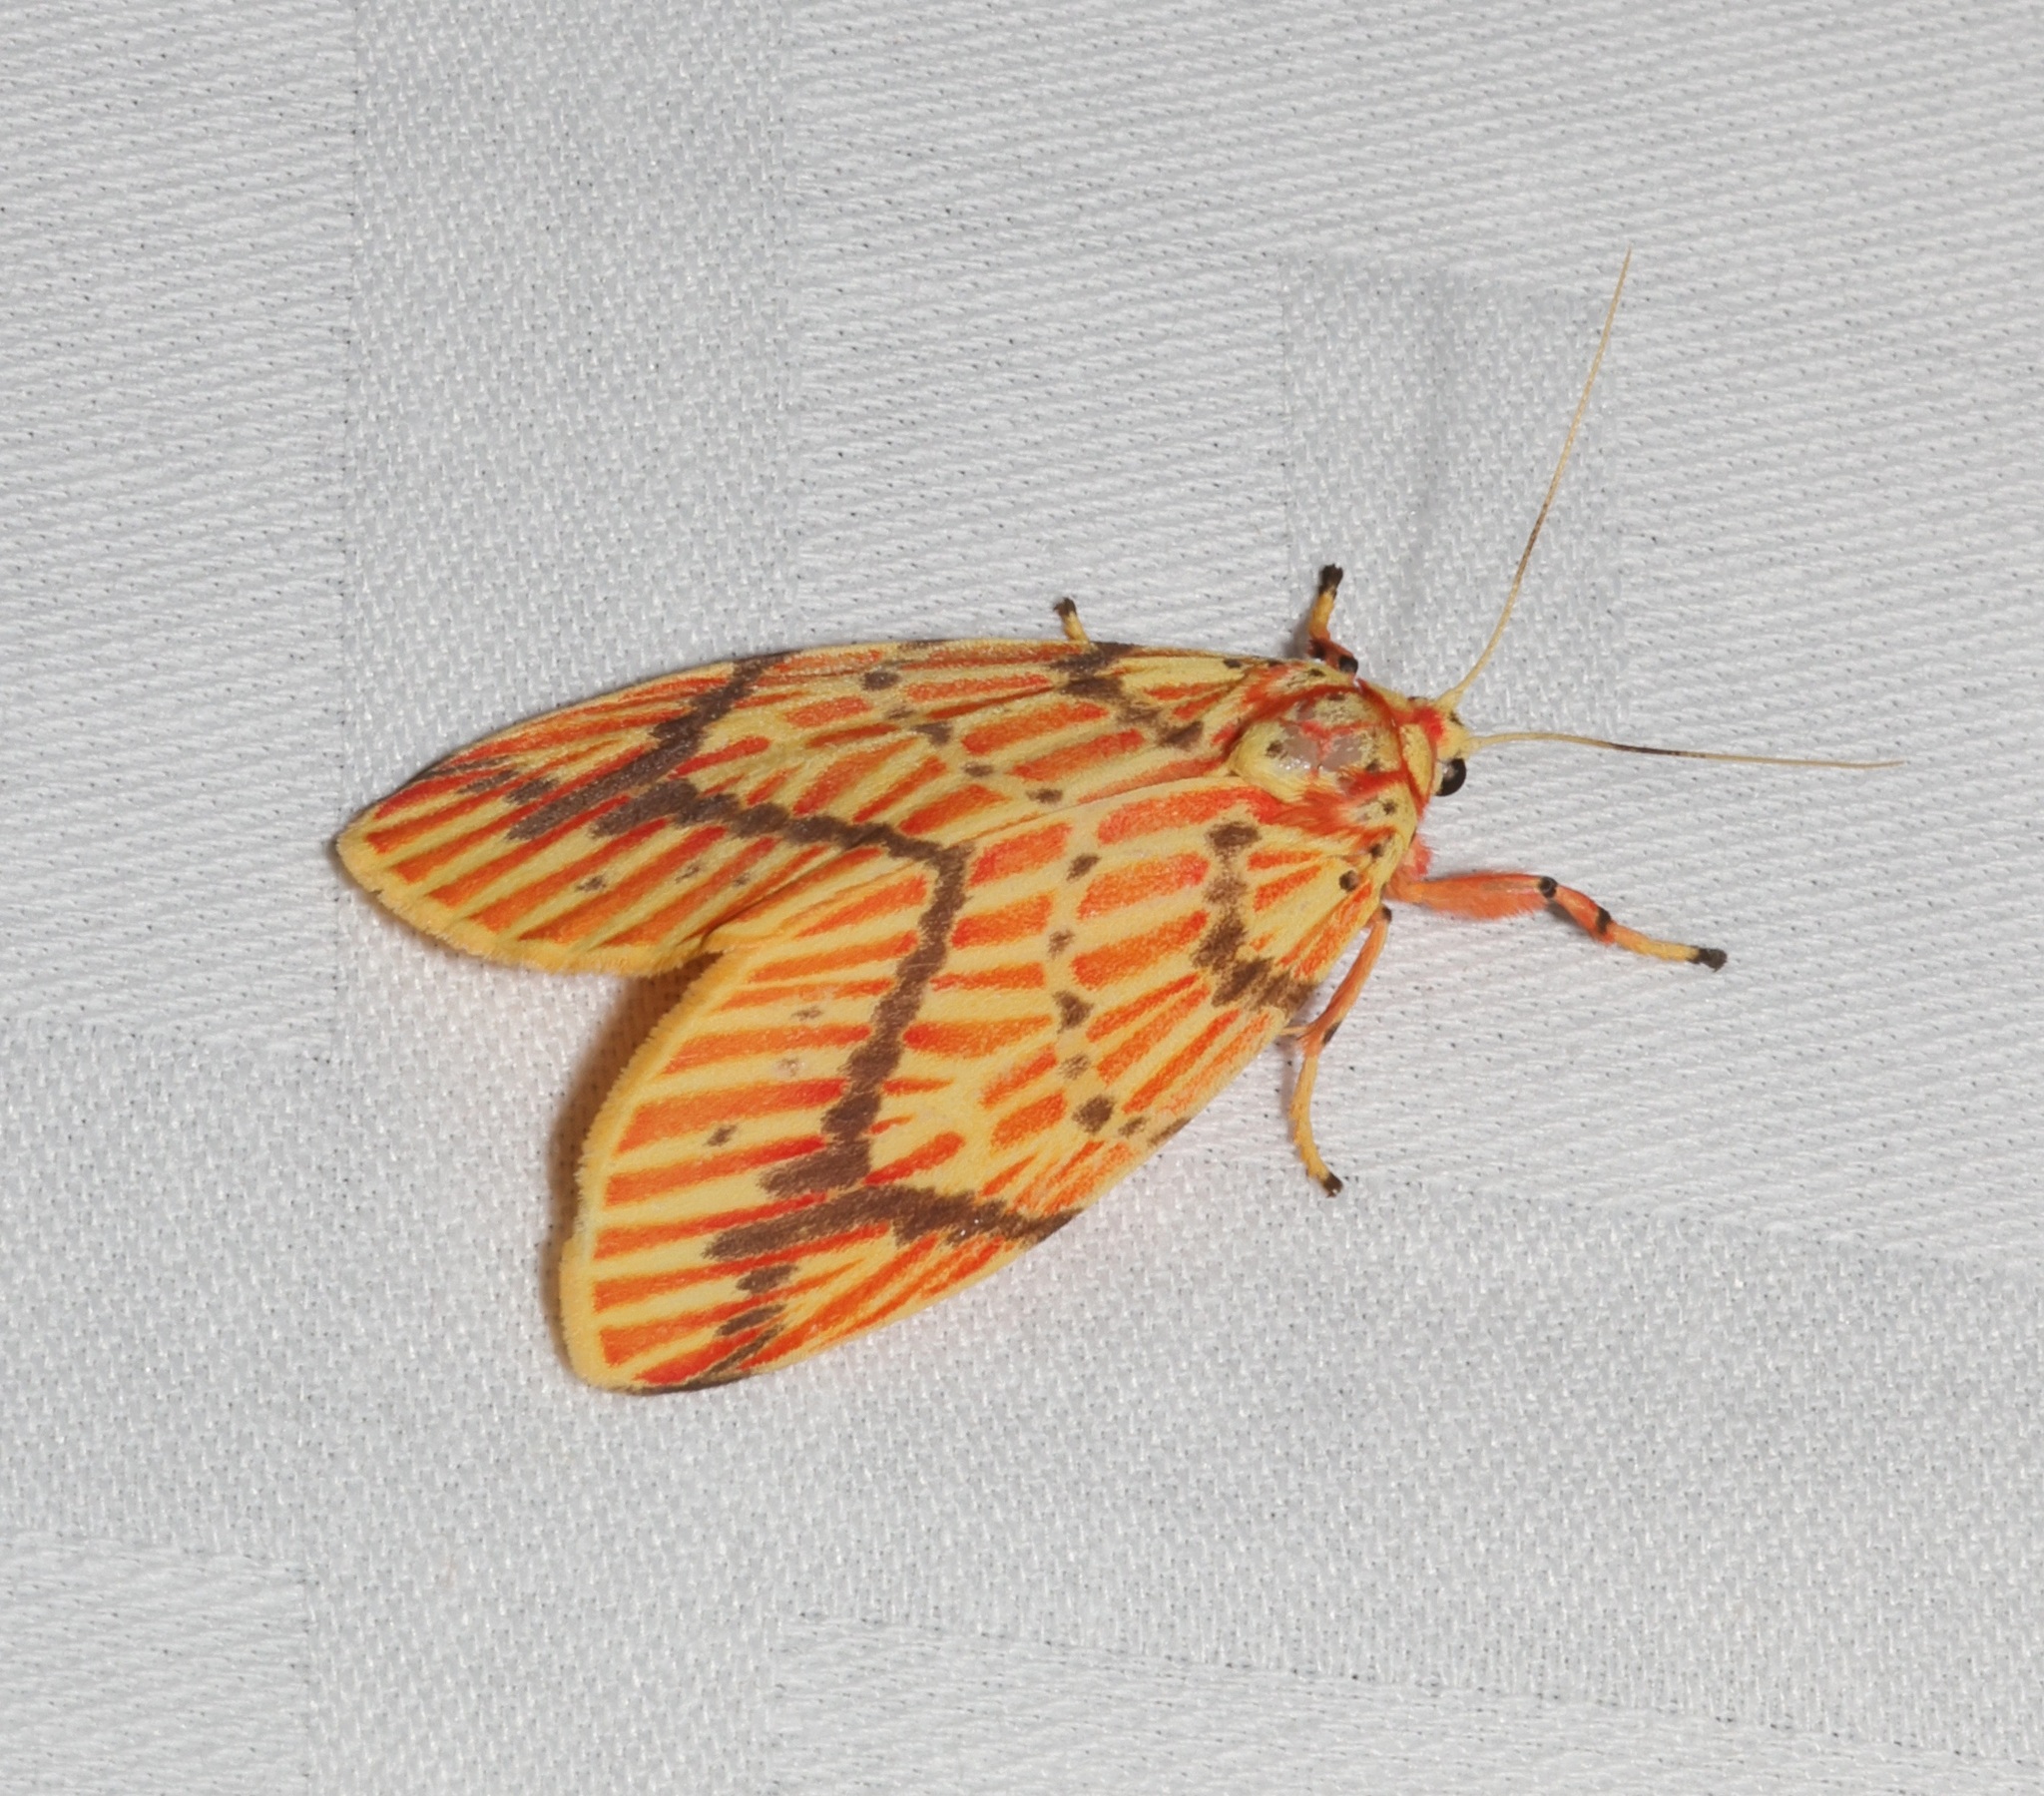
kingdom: Animalia
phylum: Arthropoda
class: Insecta
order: Lepidoptera
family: Erebidae
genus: Barsine
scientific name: Barsine striata
